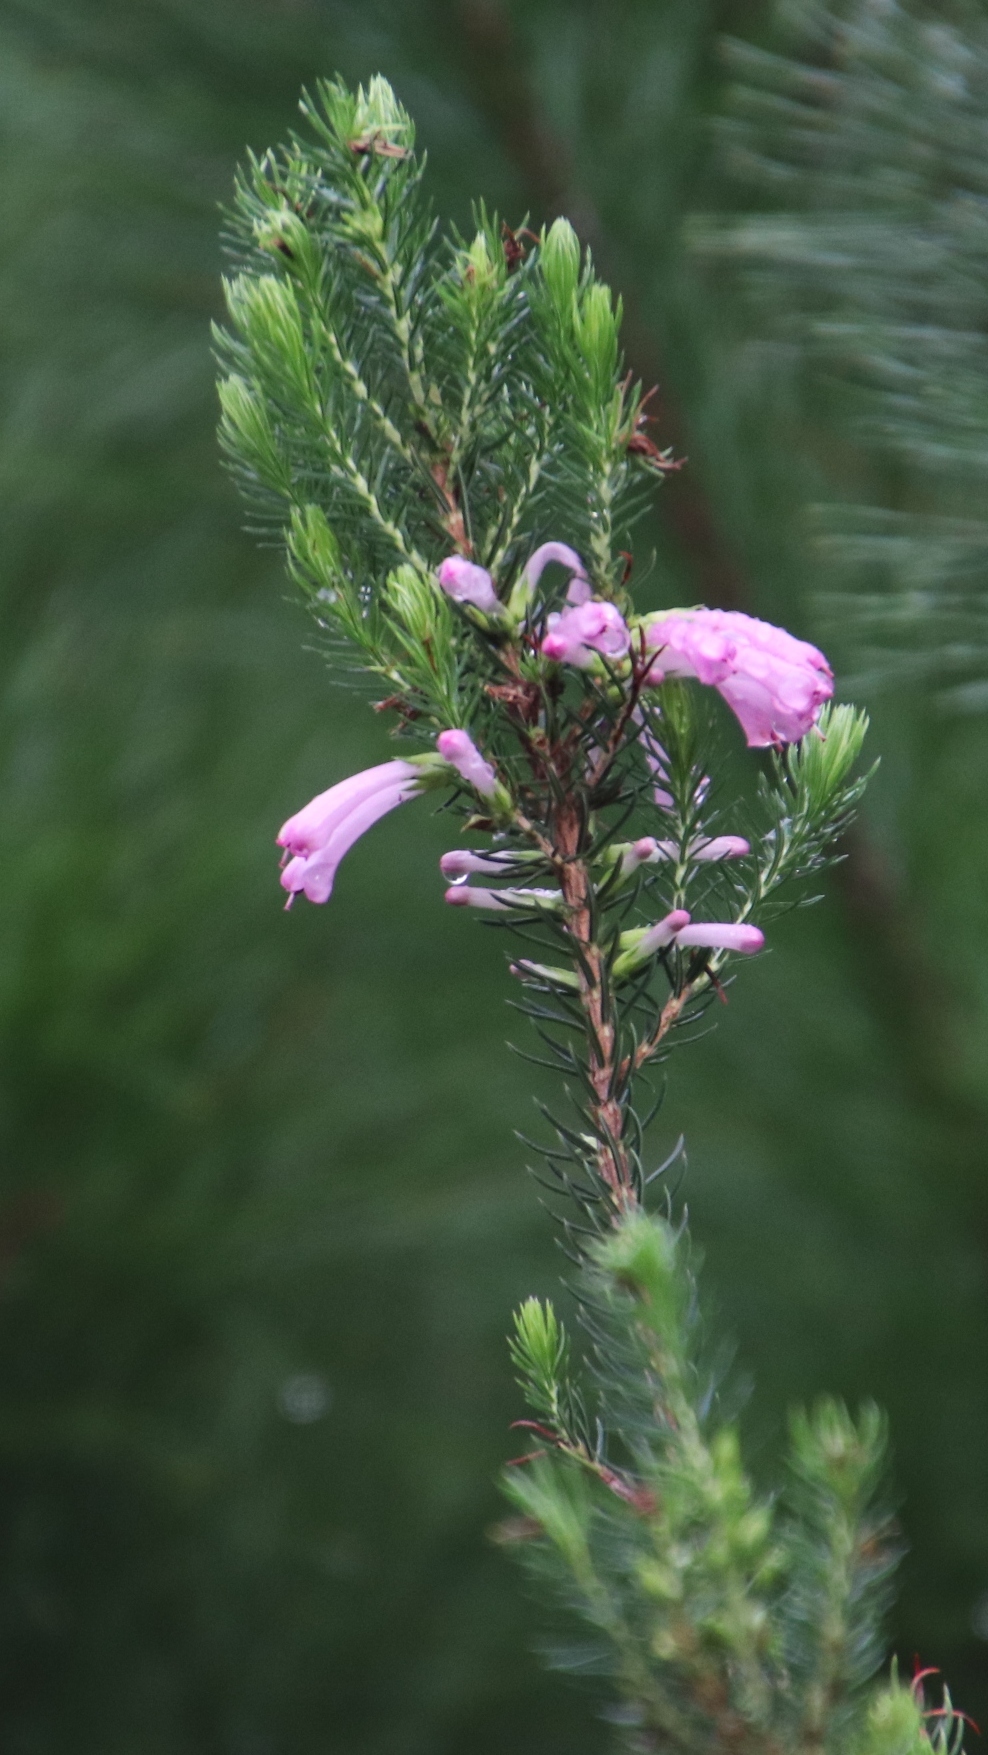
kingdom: Plantae
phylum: Tracheophyta
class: Magnoliopsida
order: Ericales
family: Ericaceae
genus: Erica
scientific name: Erica abietina
